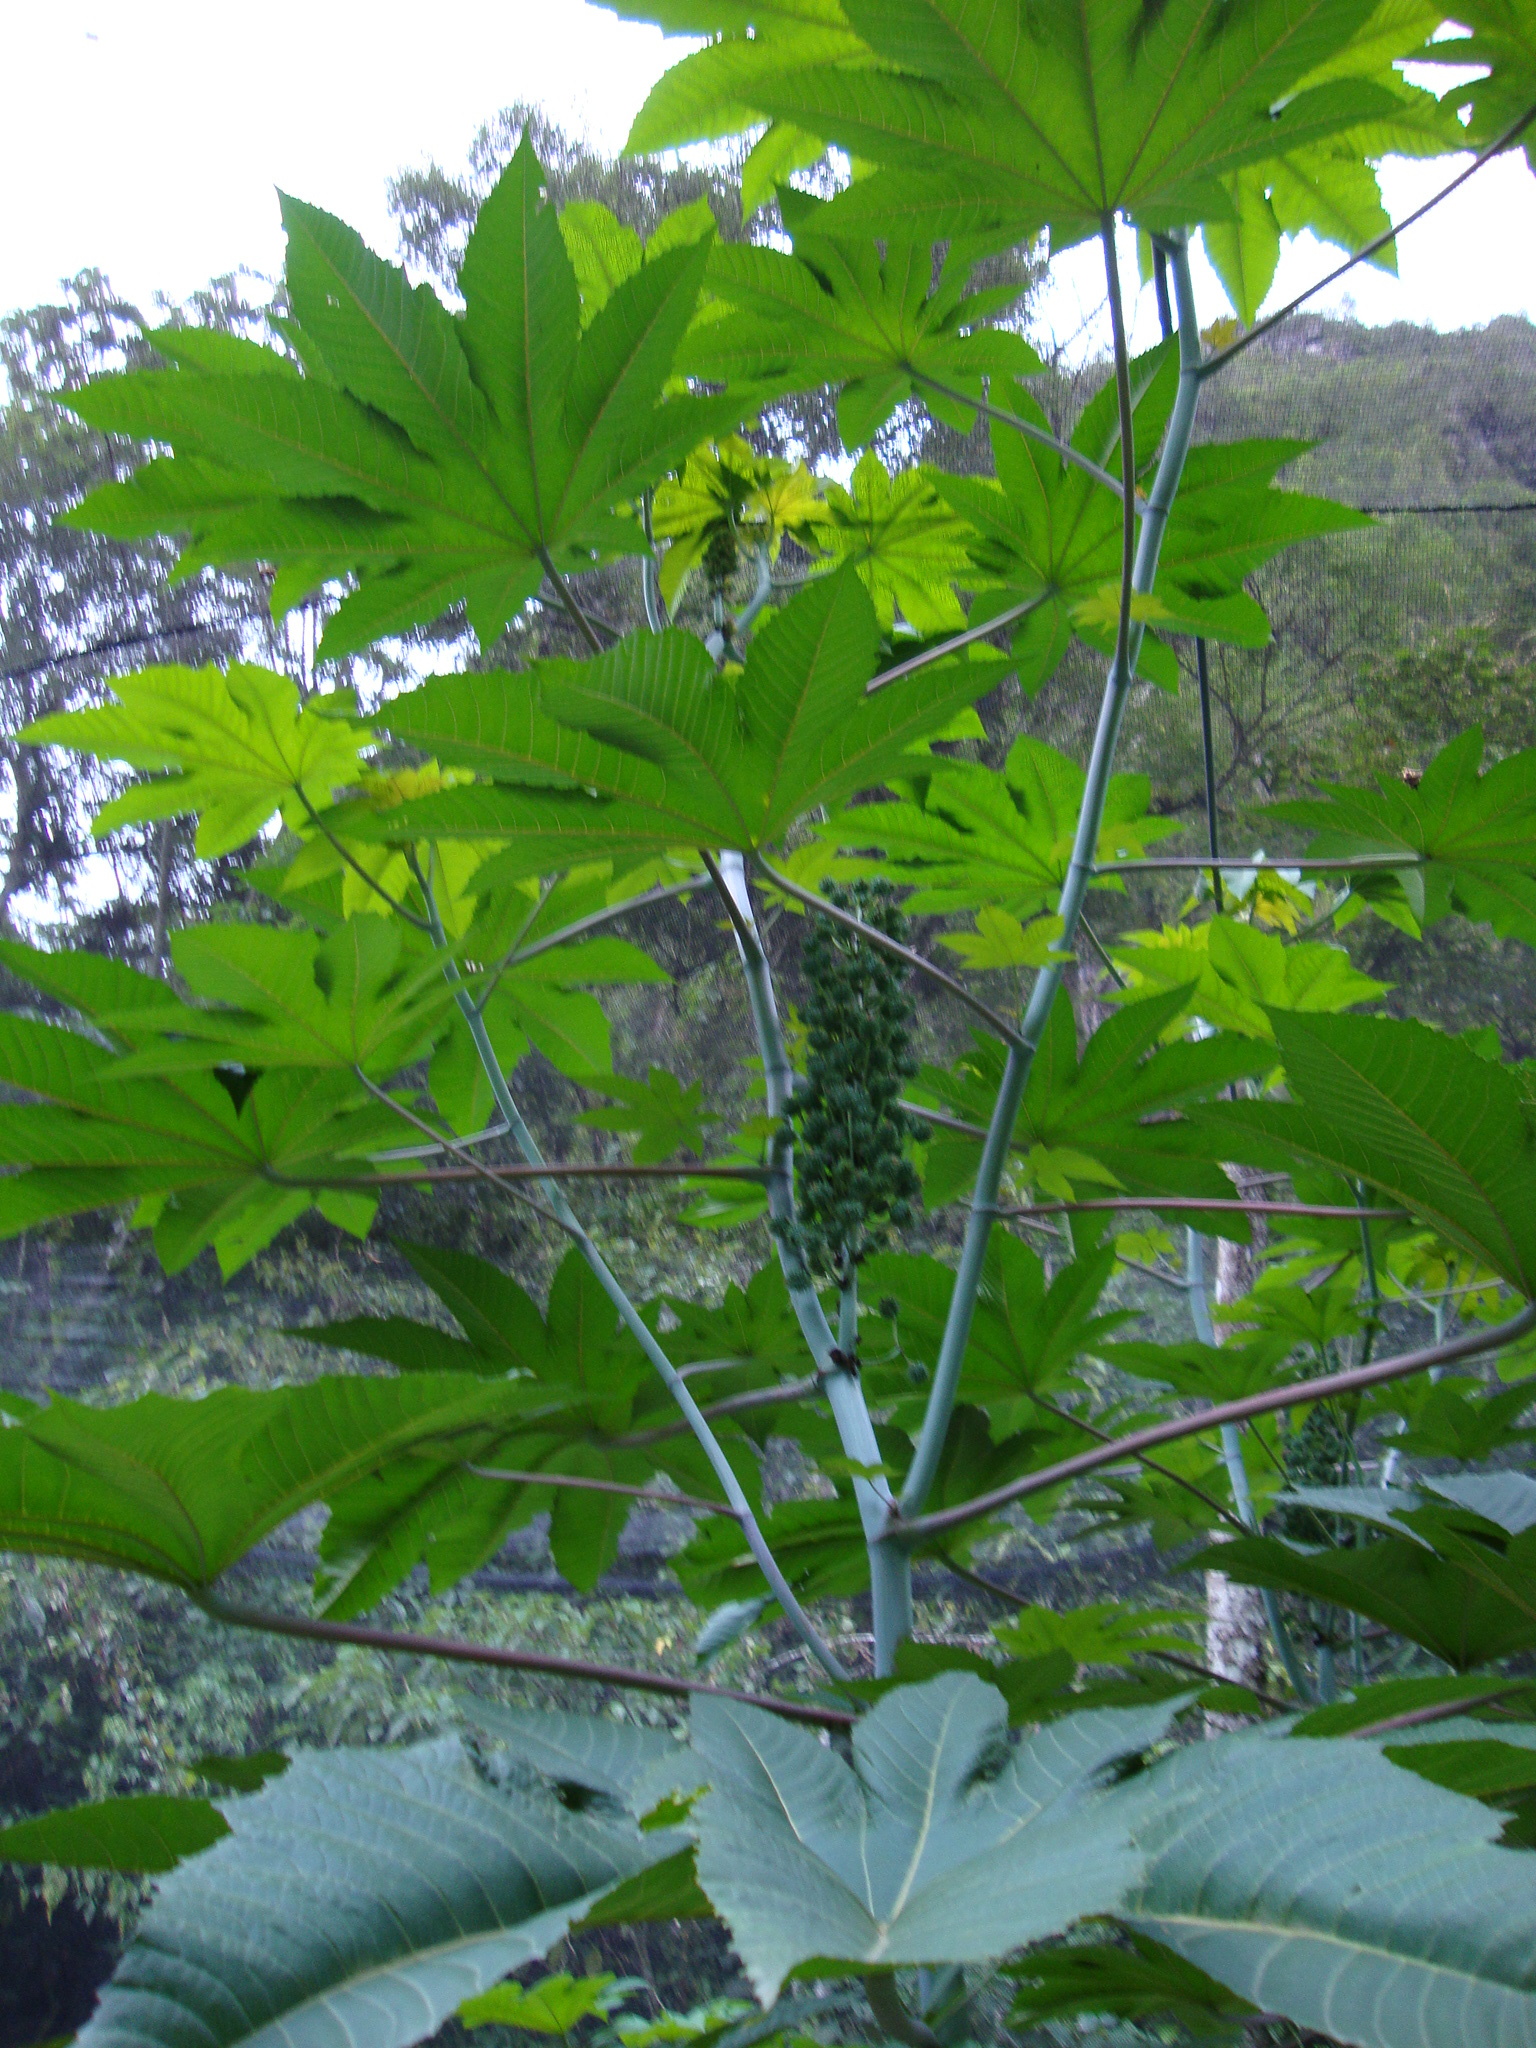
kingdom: Plantae
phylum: Tracheophyta
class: Magnoliopsida
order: Malpighiales
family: Euphorbiaceae
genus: Ricinus
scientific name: Ricinus communis
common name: Castor-oil-plant
